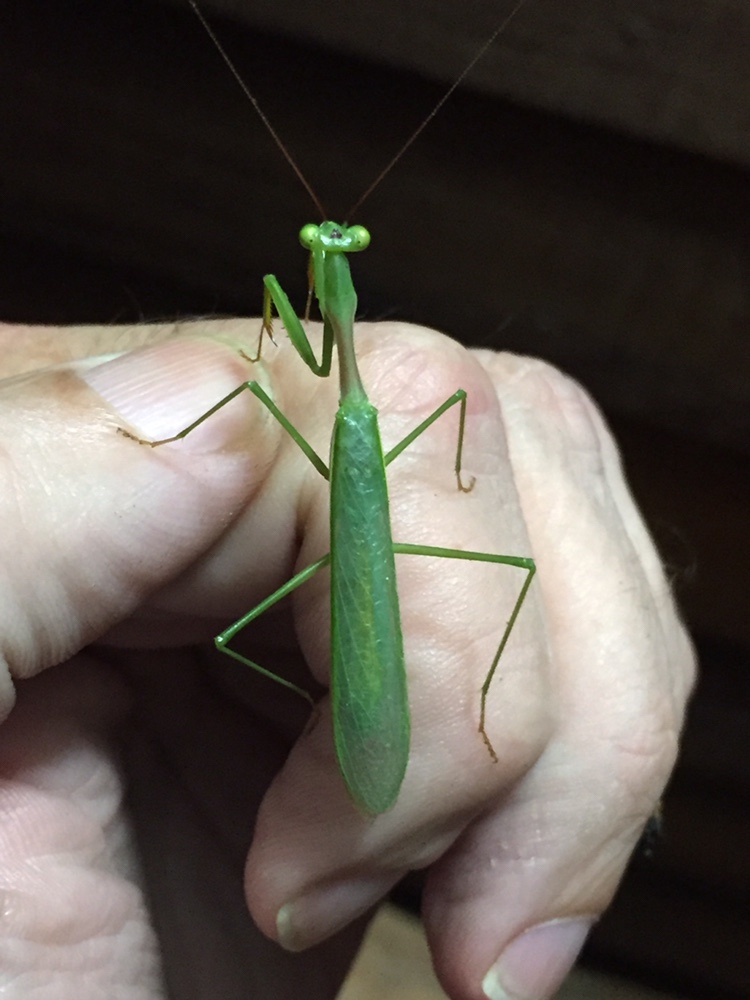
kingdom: Animalia
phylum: Arthropoda
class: Insecta
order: Mantodea
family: Miomantidae
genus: Miomantis
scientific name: Miomantis caffra
